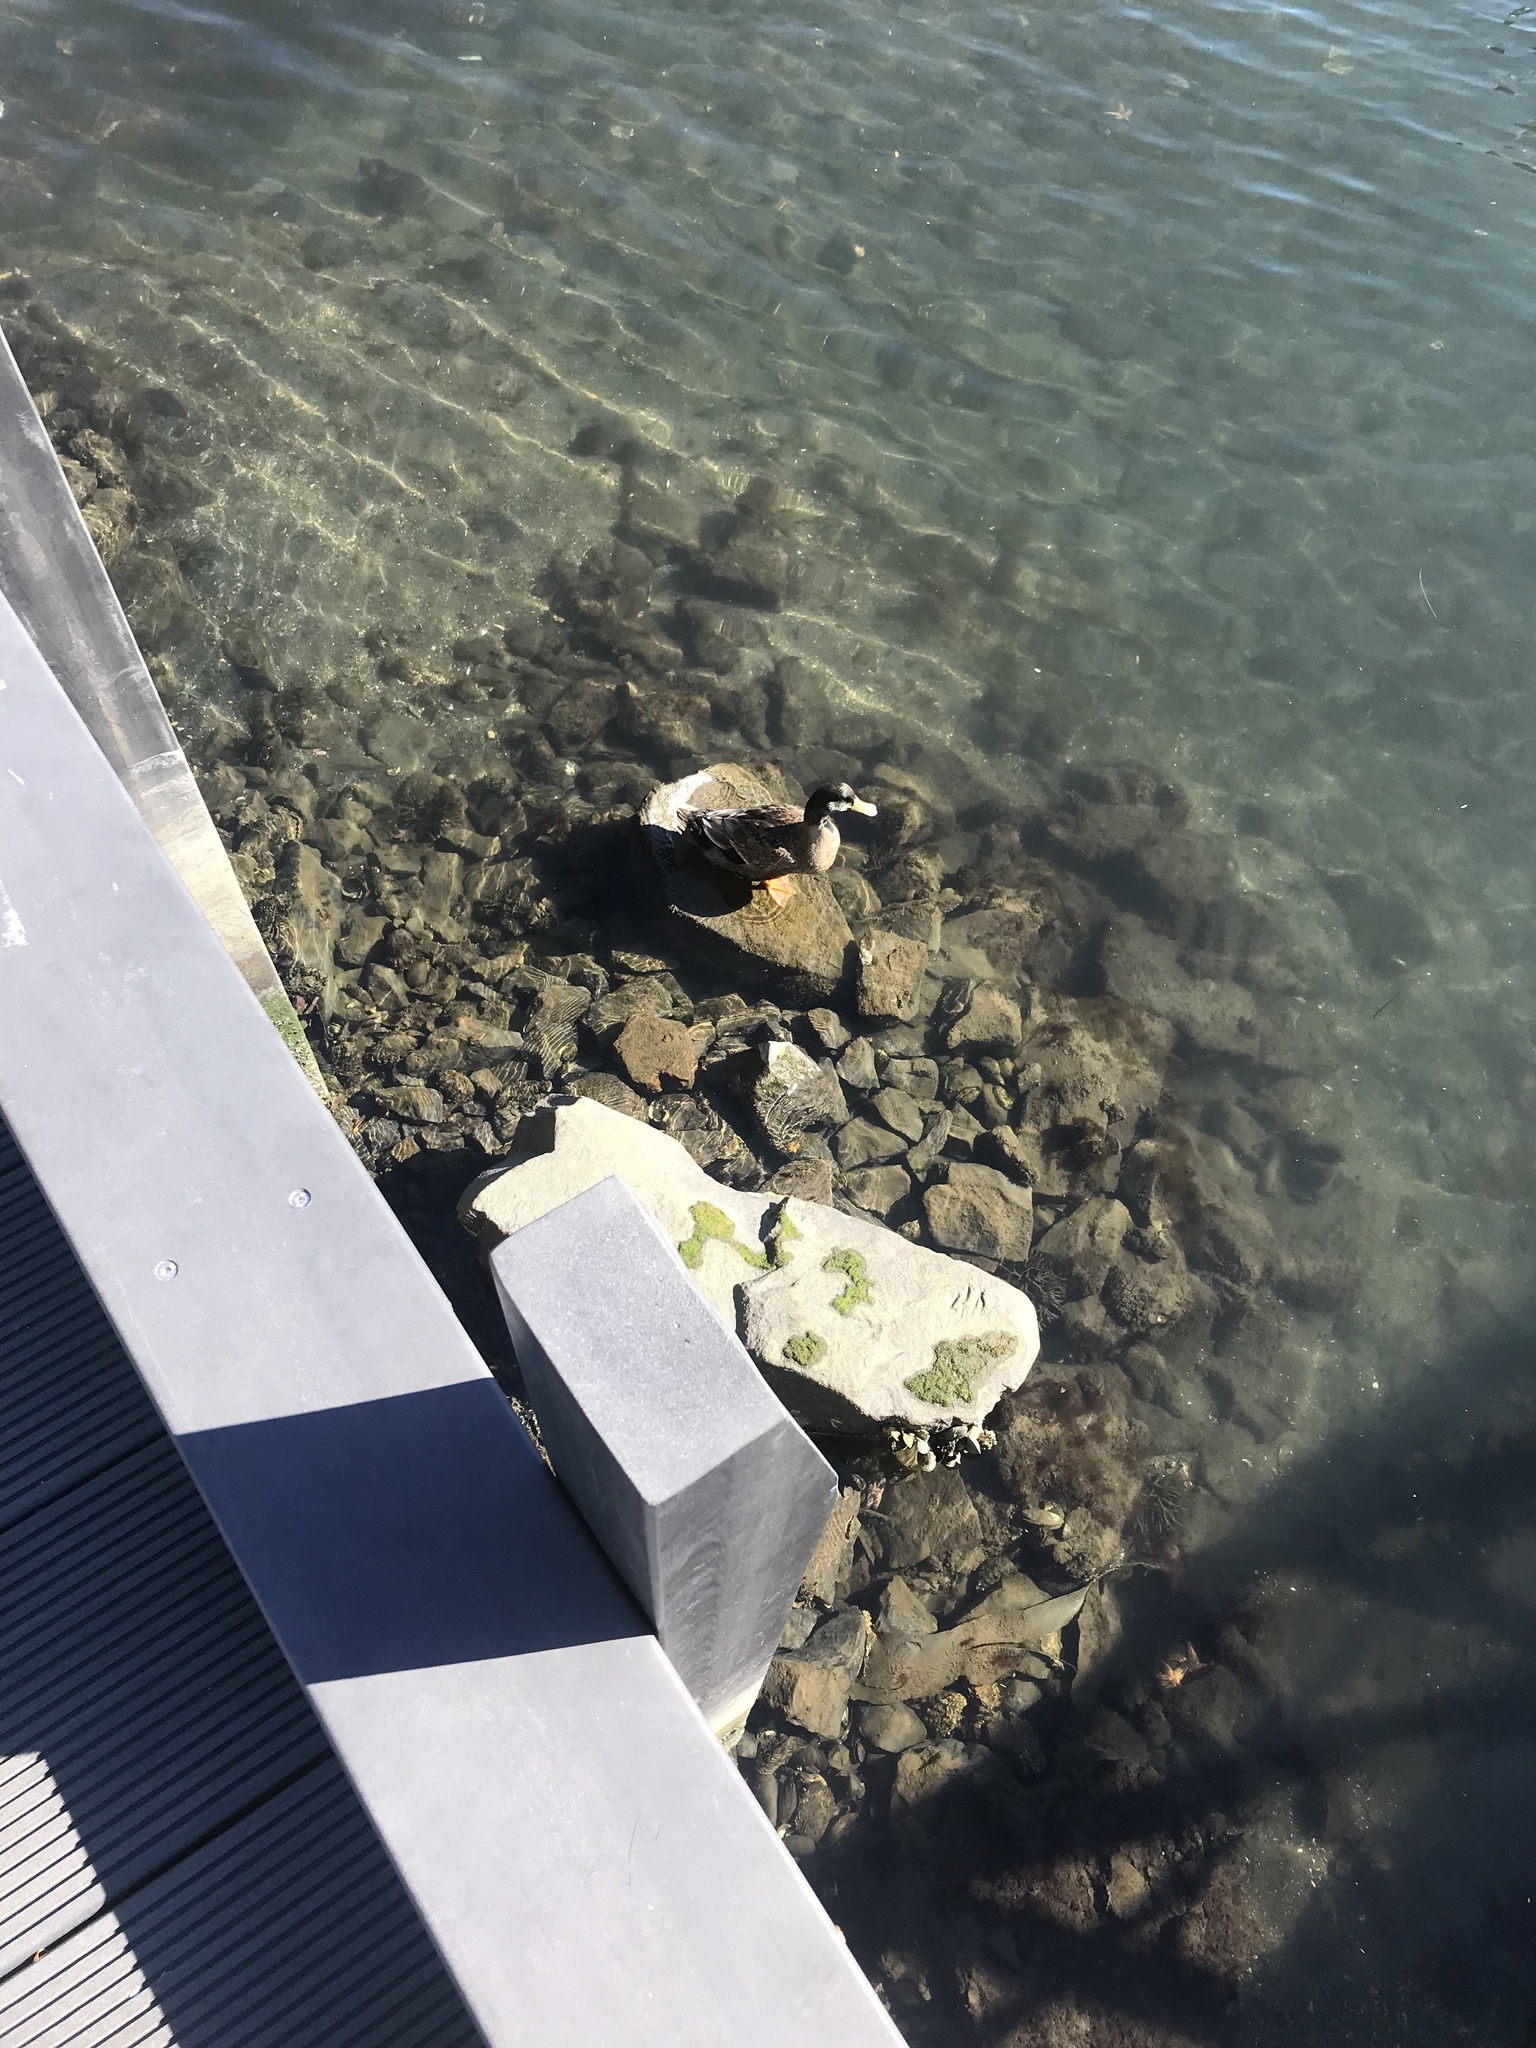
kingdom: Animalia
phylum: Chordata
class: Aves
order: Anseriformes
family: Anatidae
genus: Anas
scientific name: Anas platyrhynchos
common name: Mallard
